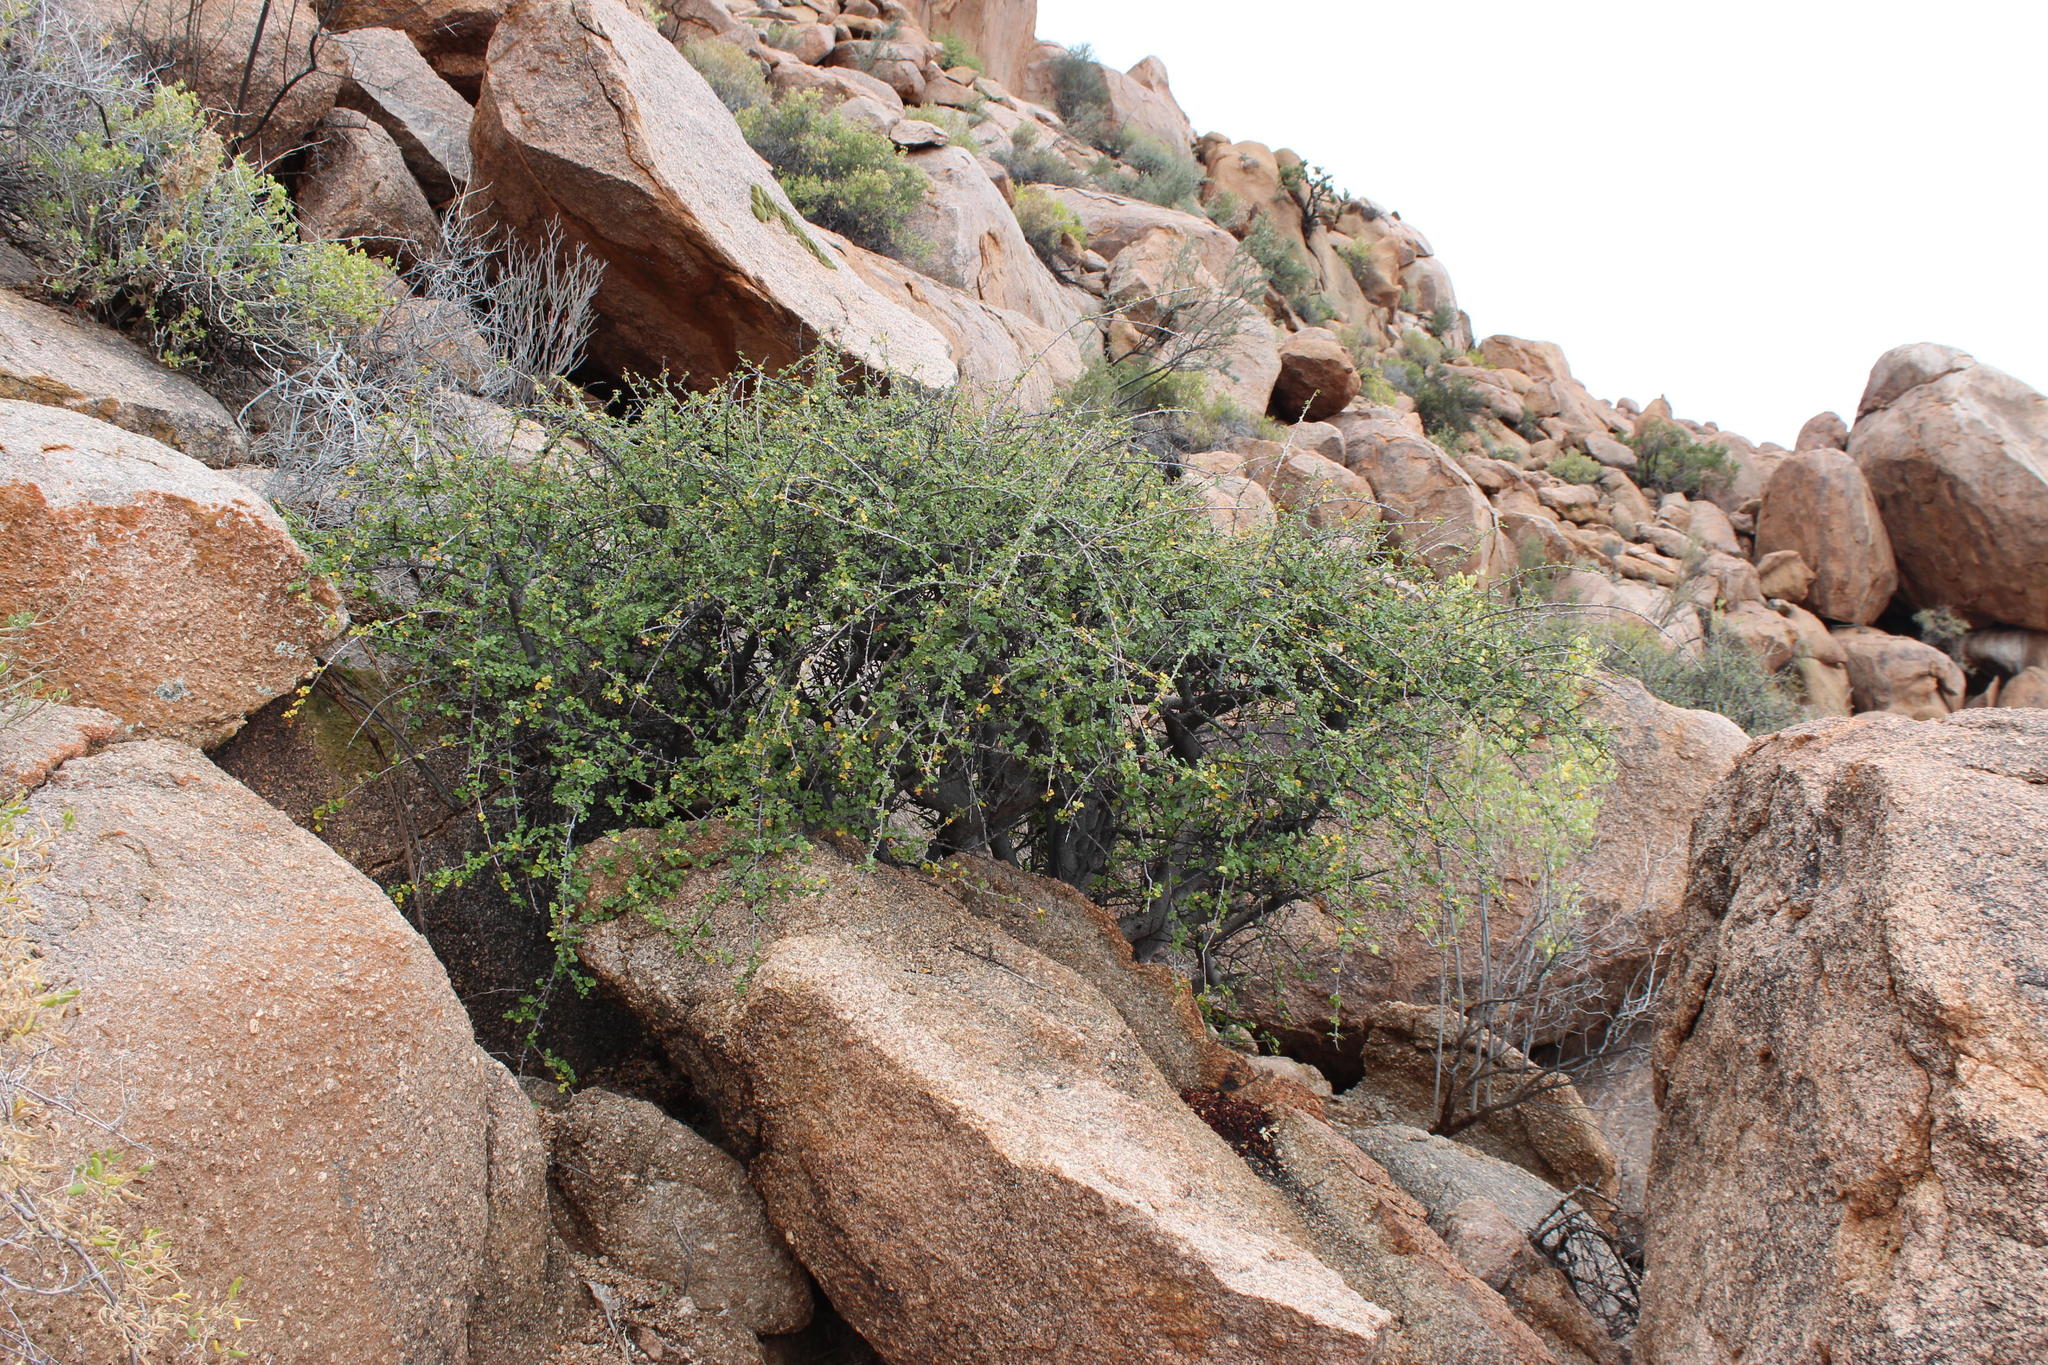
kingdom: Plantae
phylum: Tracheophyta
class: Magnoliopsida
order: Sapindales
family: Burseraceae
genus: Commiphora
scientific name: Commiphora capensis
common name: Namaqua commiphora
